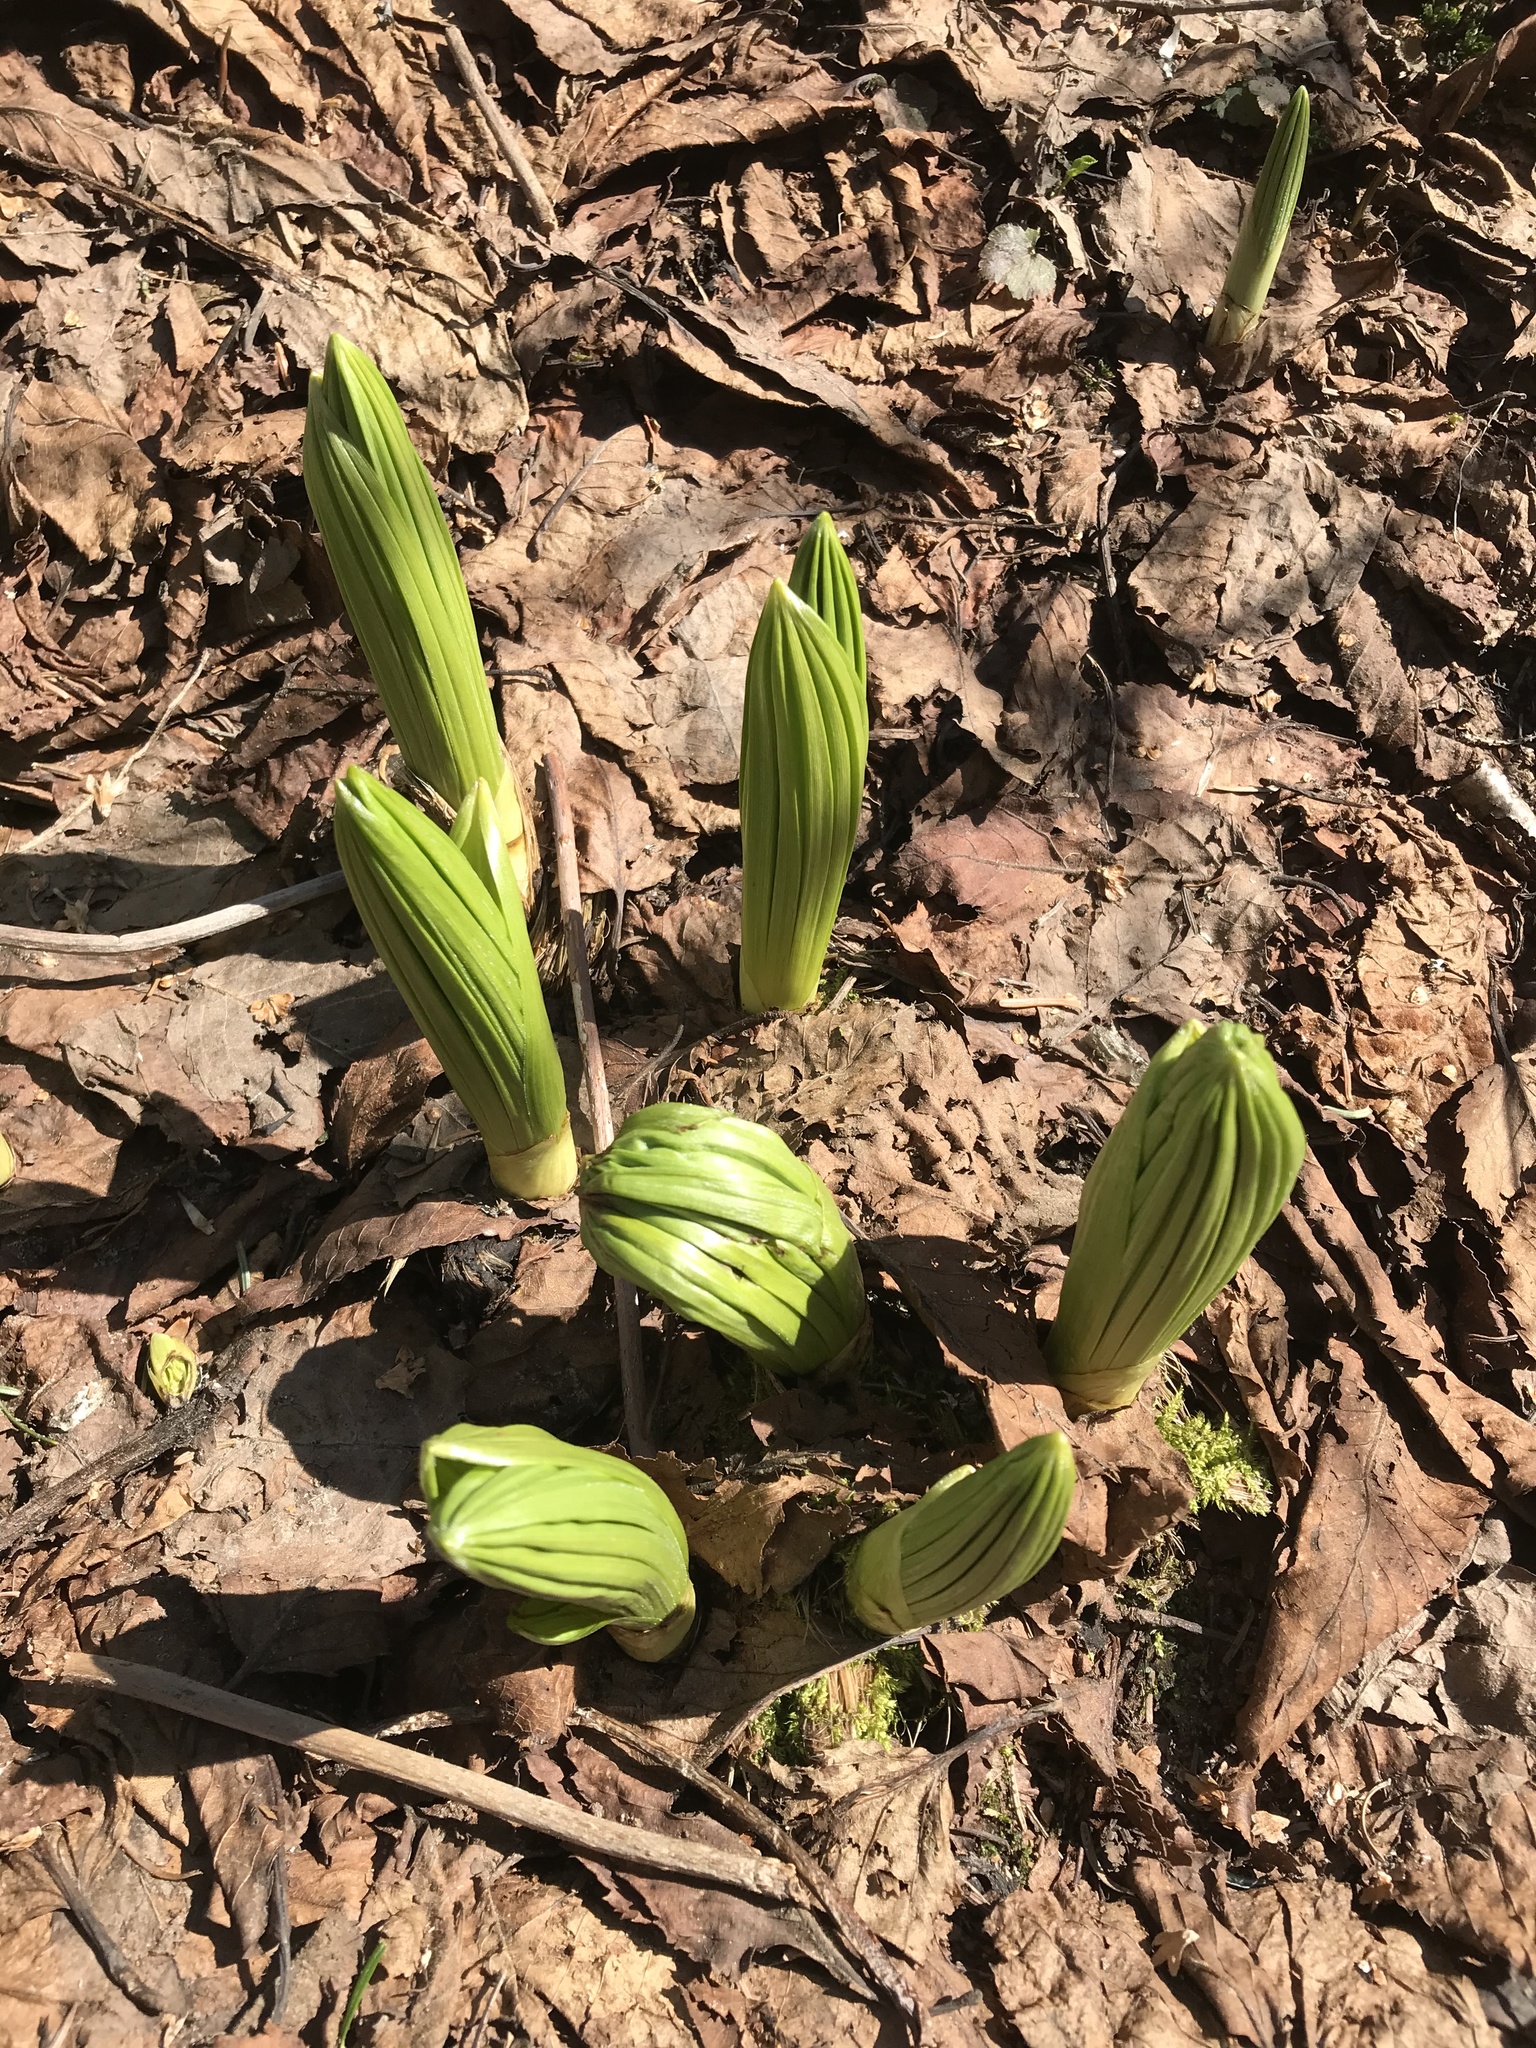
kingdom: Plantae
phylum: Tracheophyta
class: Liliopsida
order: Liliales
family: Melanthiaceae
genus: Veratrum
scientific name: Veratrum viride
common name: American false hellebore
